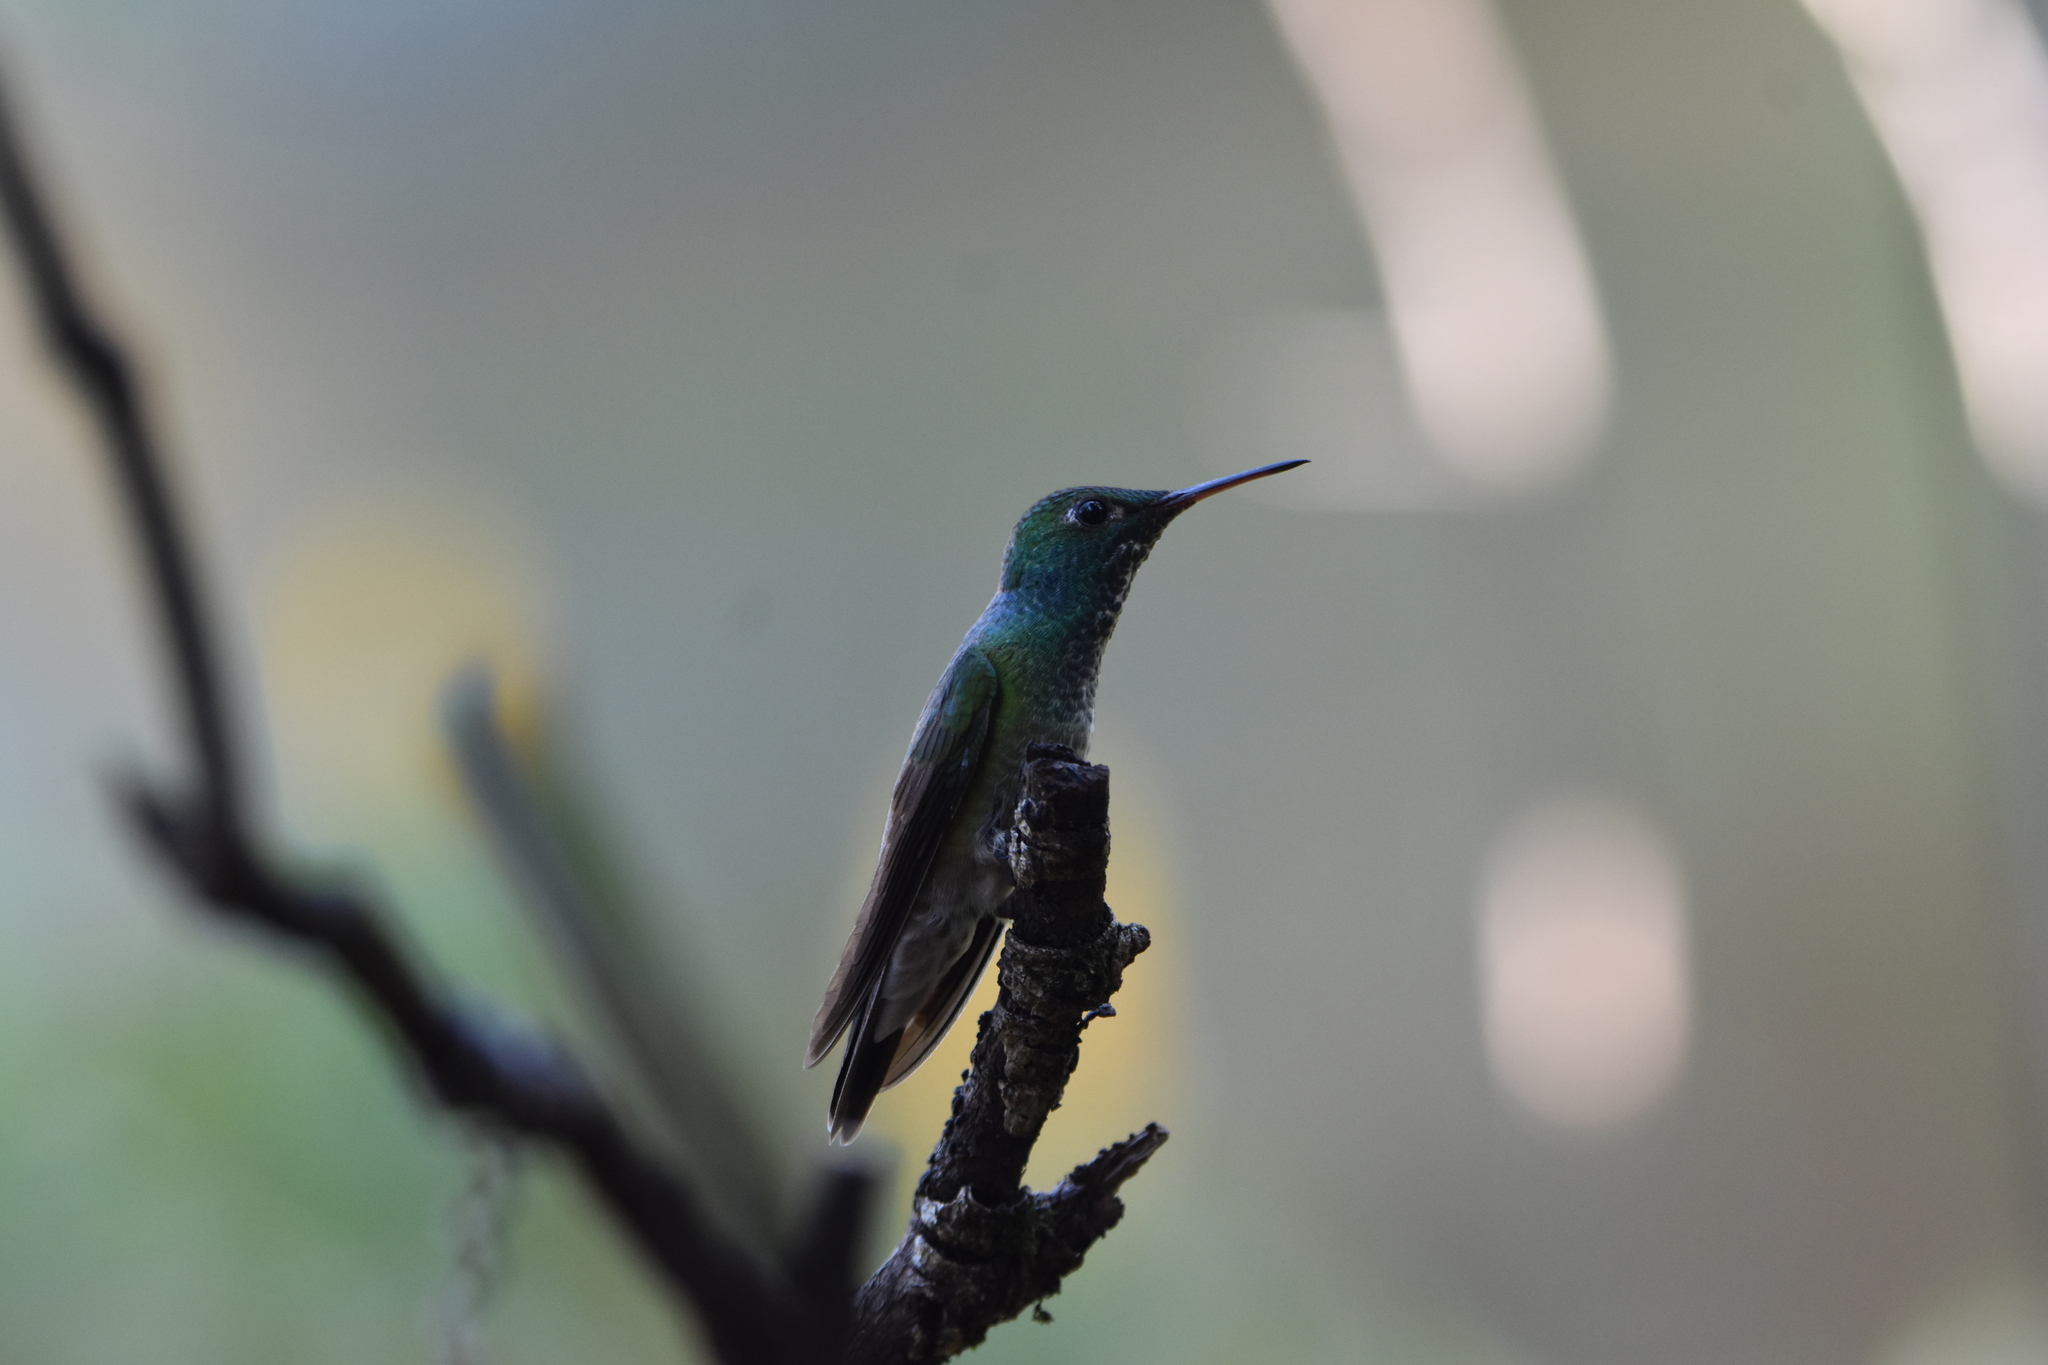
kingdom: Animalia
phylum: Chordata
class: Aves
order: Apodiformes
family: Trochilidae
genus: Chrysuronia
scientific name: Chrysuronia versicolor
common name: Versicolored emerald
